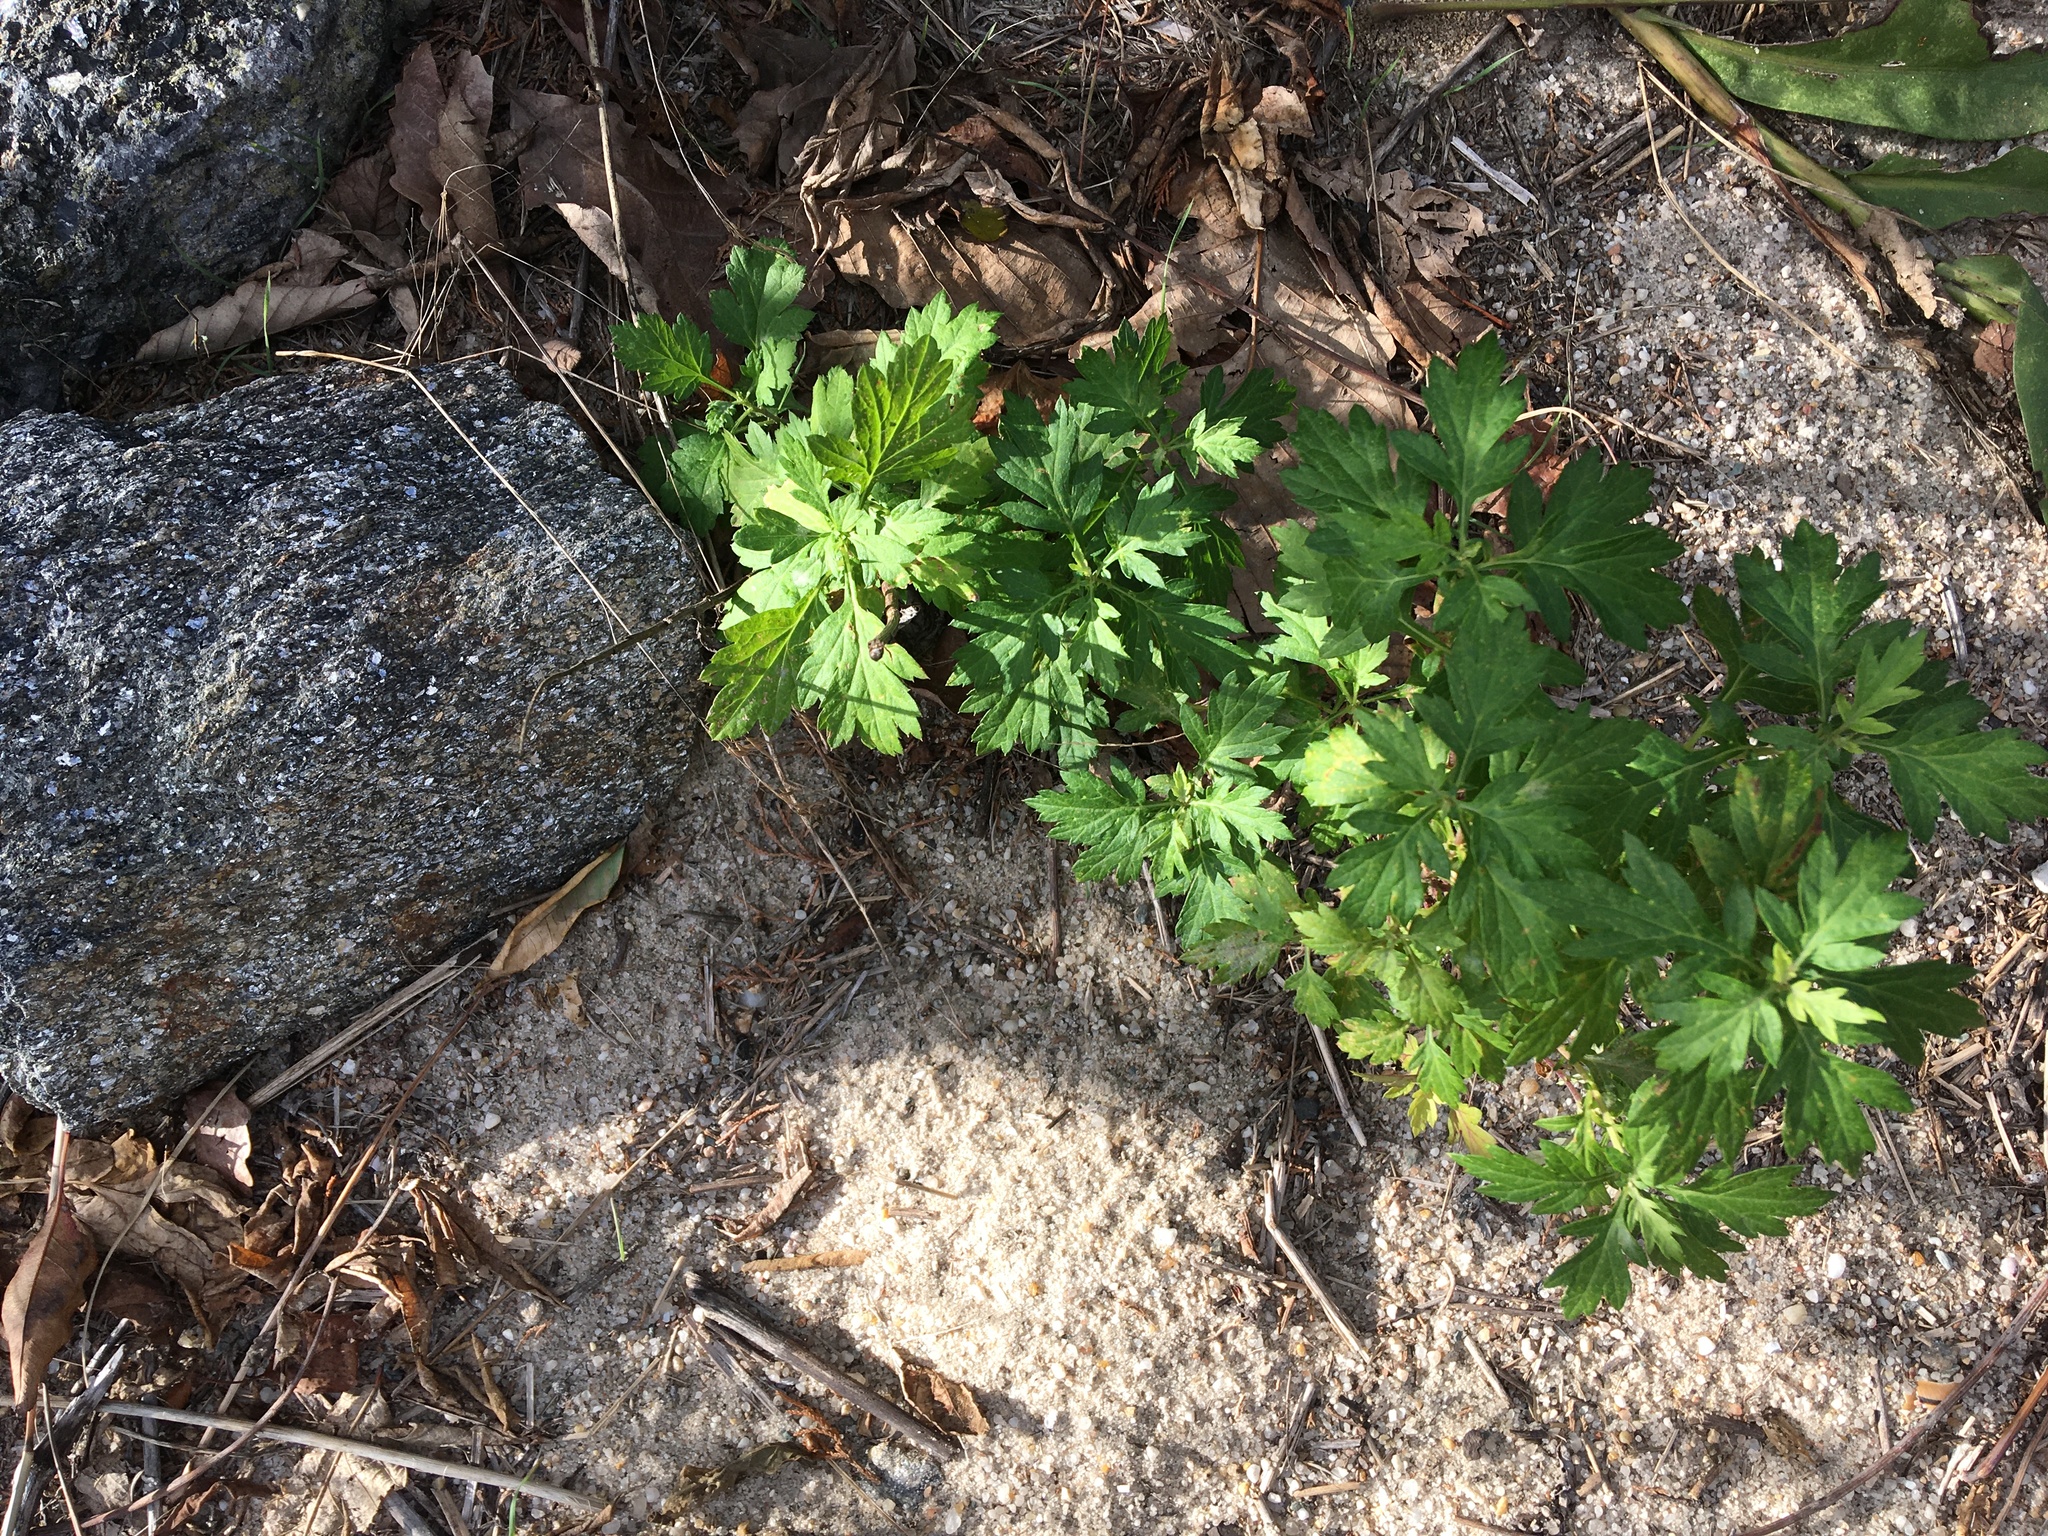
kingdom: Plantae
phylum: Tracheophyta
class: Magnoliopsida
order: Asterales
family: Asteraceae
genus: Artemisia
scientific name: Artemisia vulgaris
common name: Mugwort
